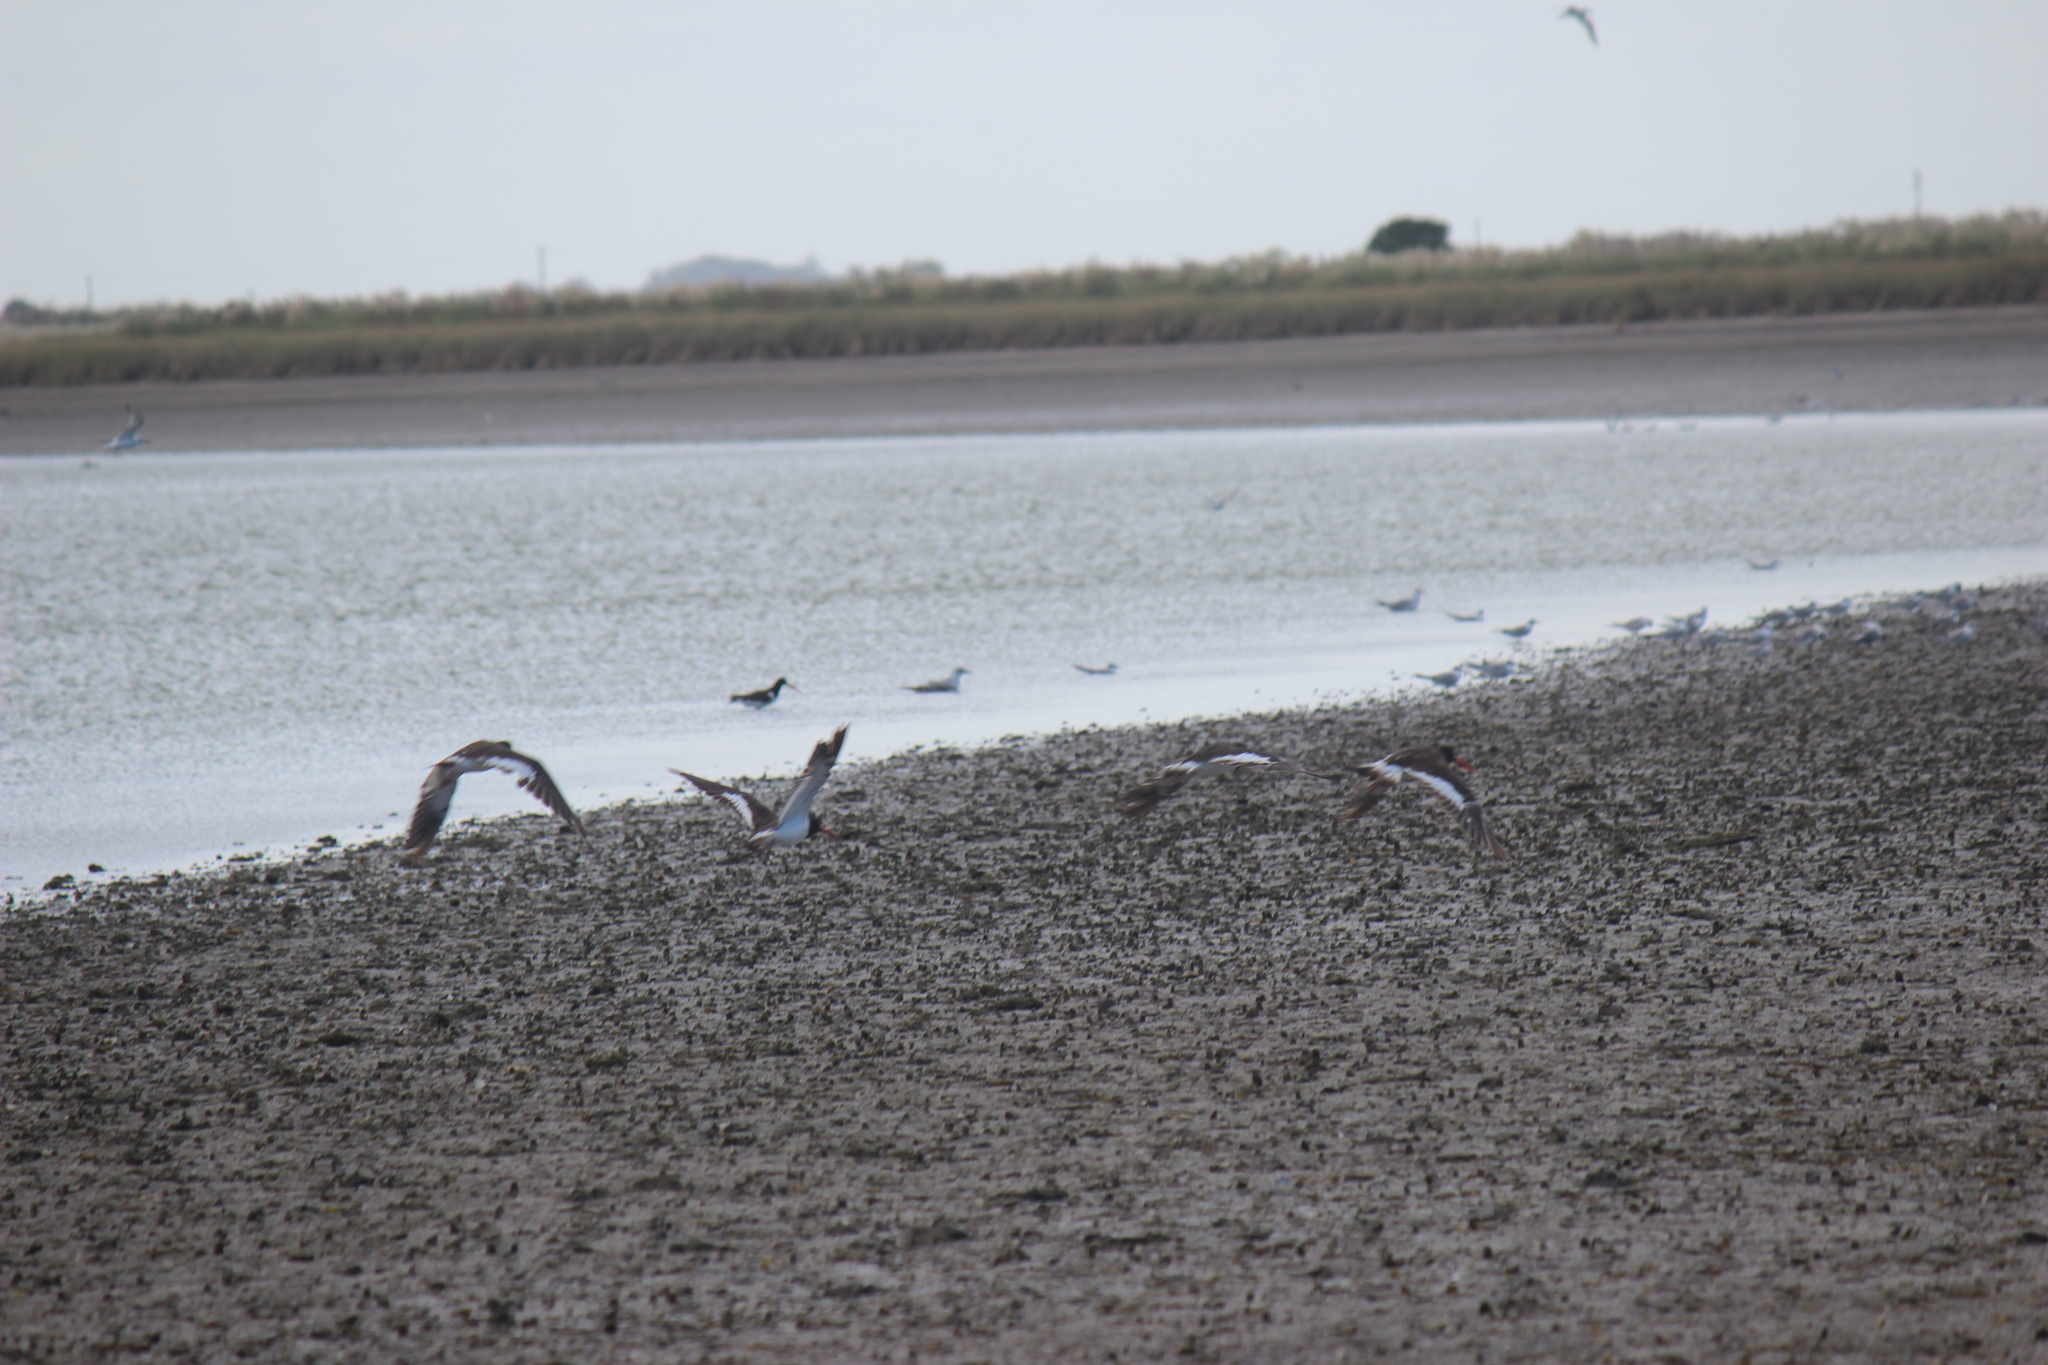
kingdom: Animalia
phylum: Chordata
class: Aves
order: Charadriiformes
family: Haematopodidae
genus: Haematopus
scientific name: Haematopus palliatus
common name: American oystercatcher
